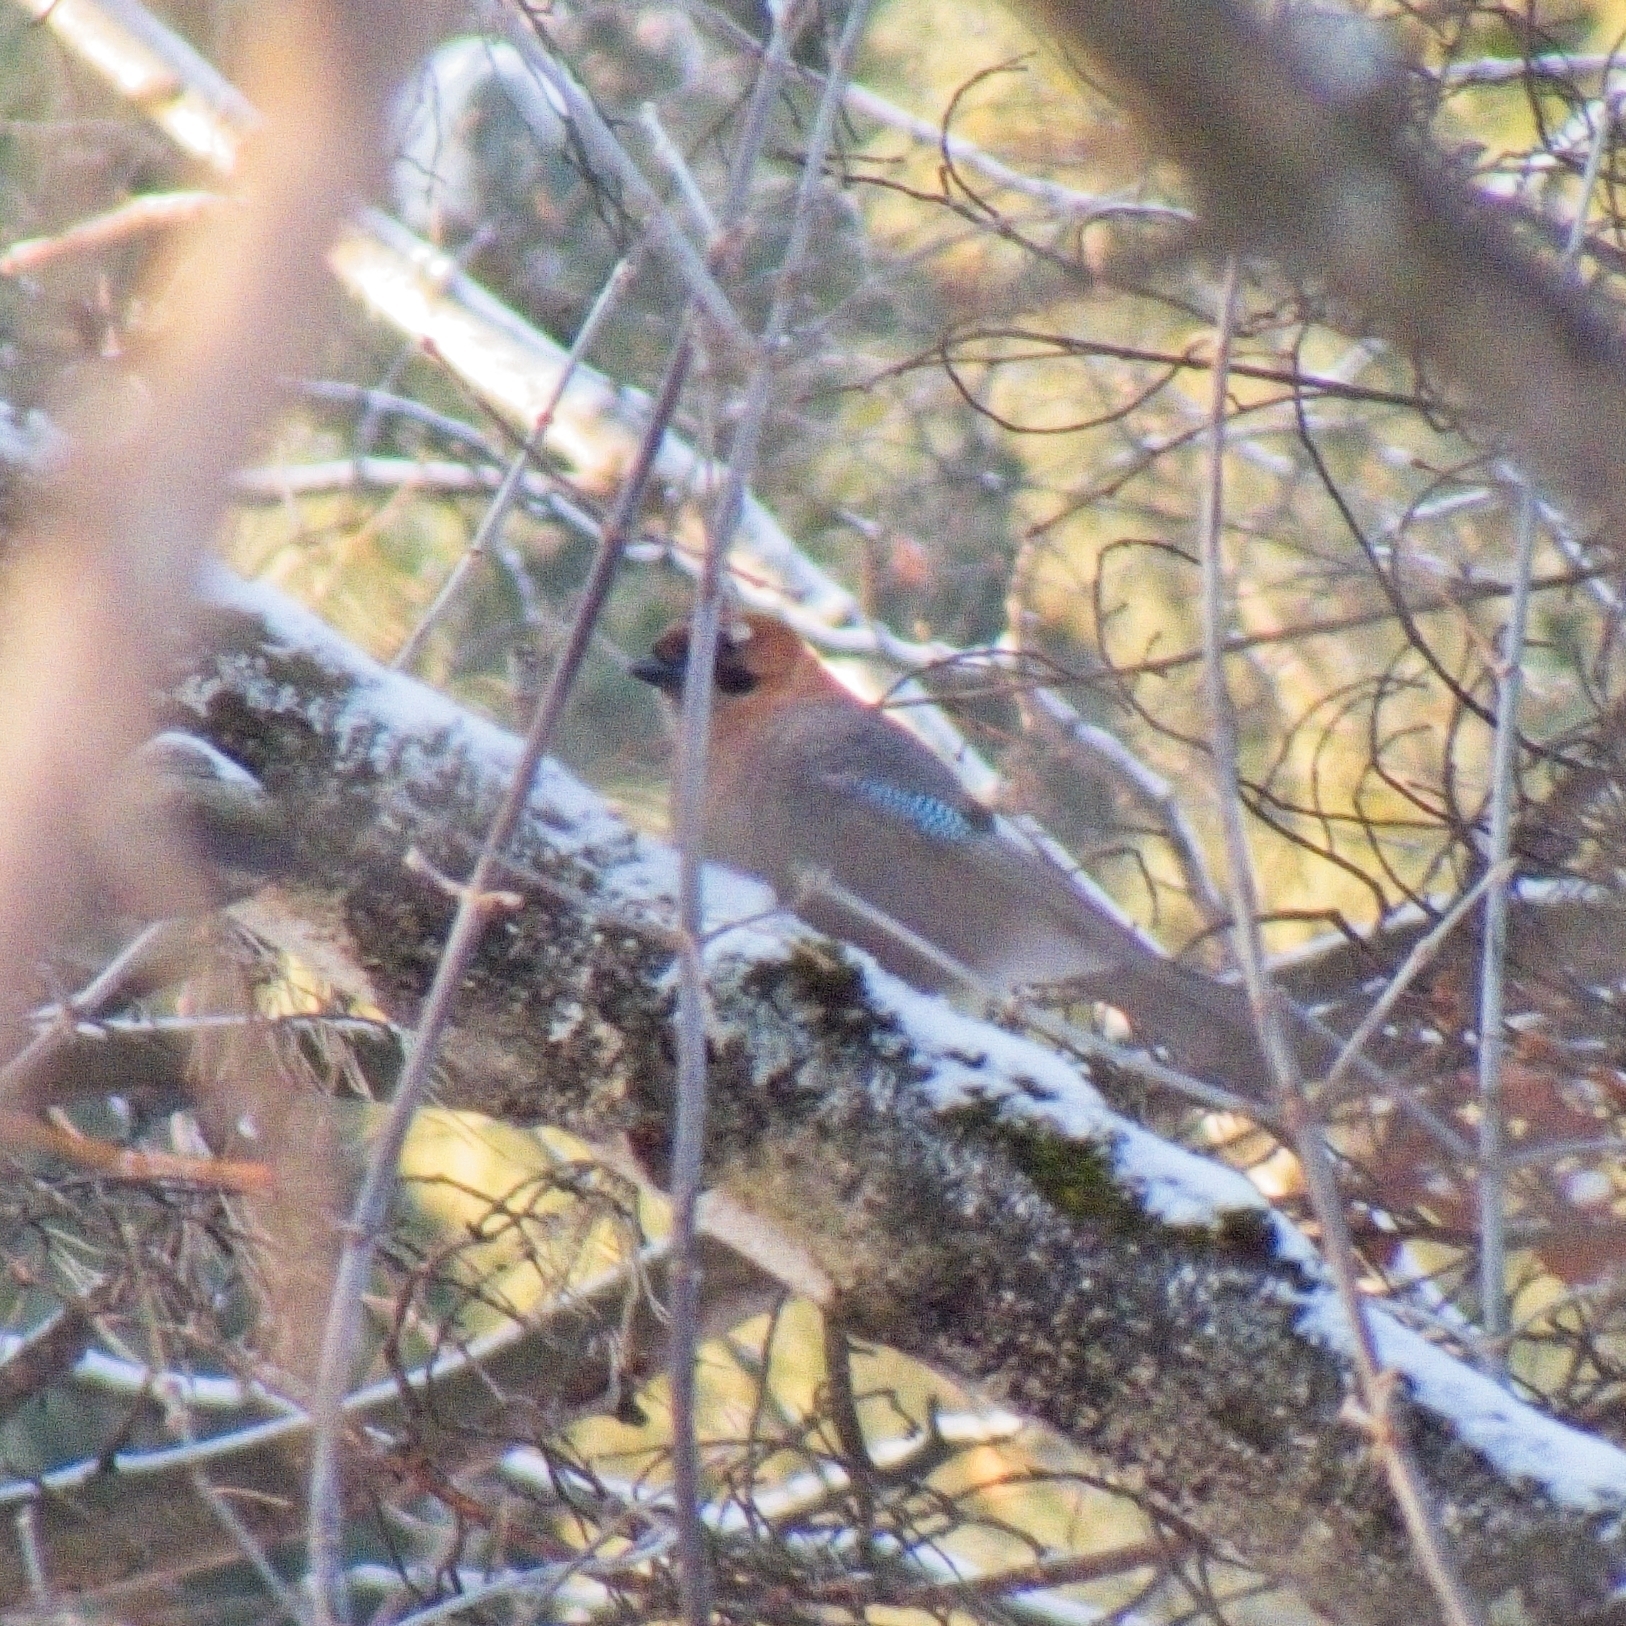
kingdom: Animalia
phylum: Chordata
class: Aves
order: Passeriformes
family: Corvidae
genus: Garrulus
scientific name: Garrulus glandarius
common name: Eurasian jay
